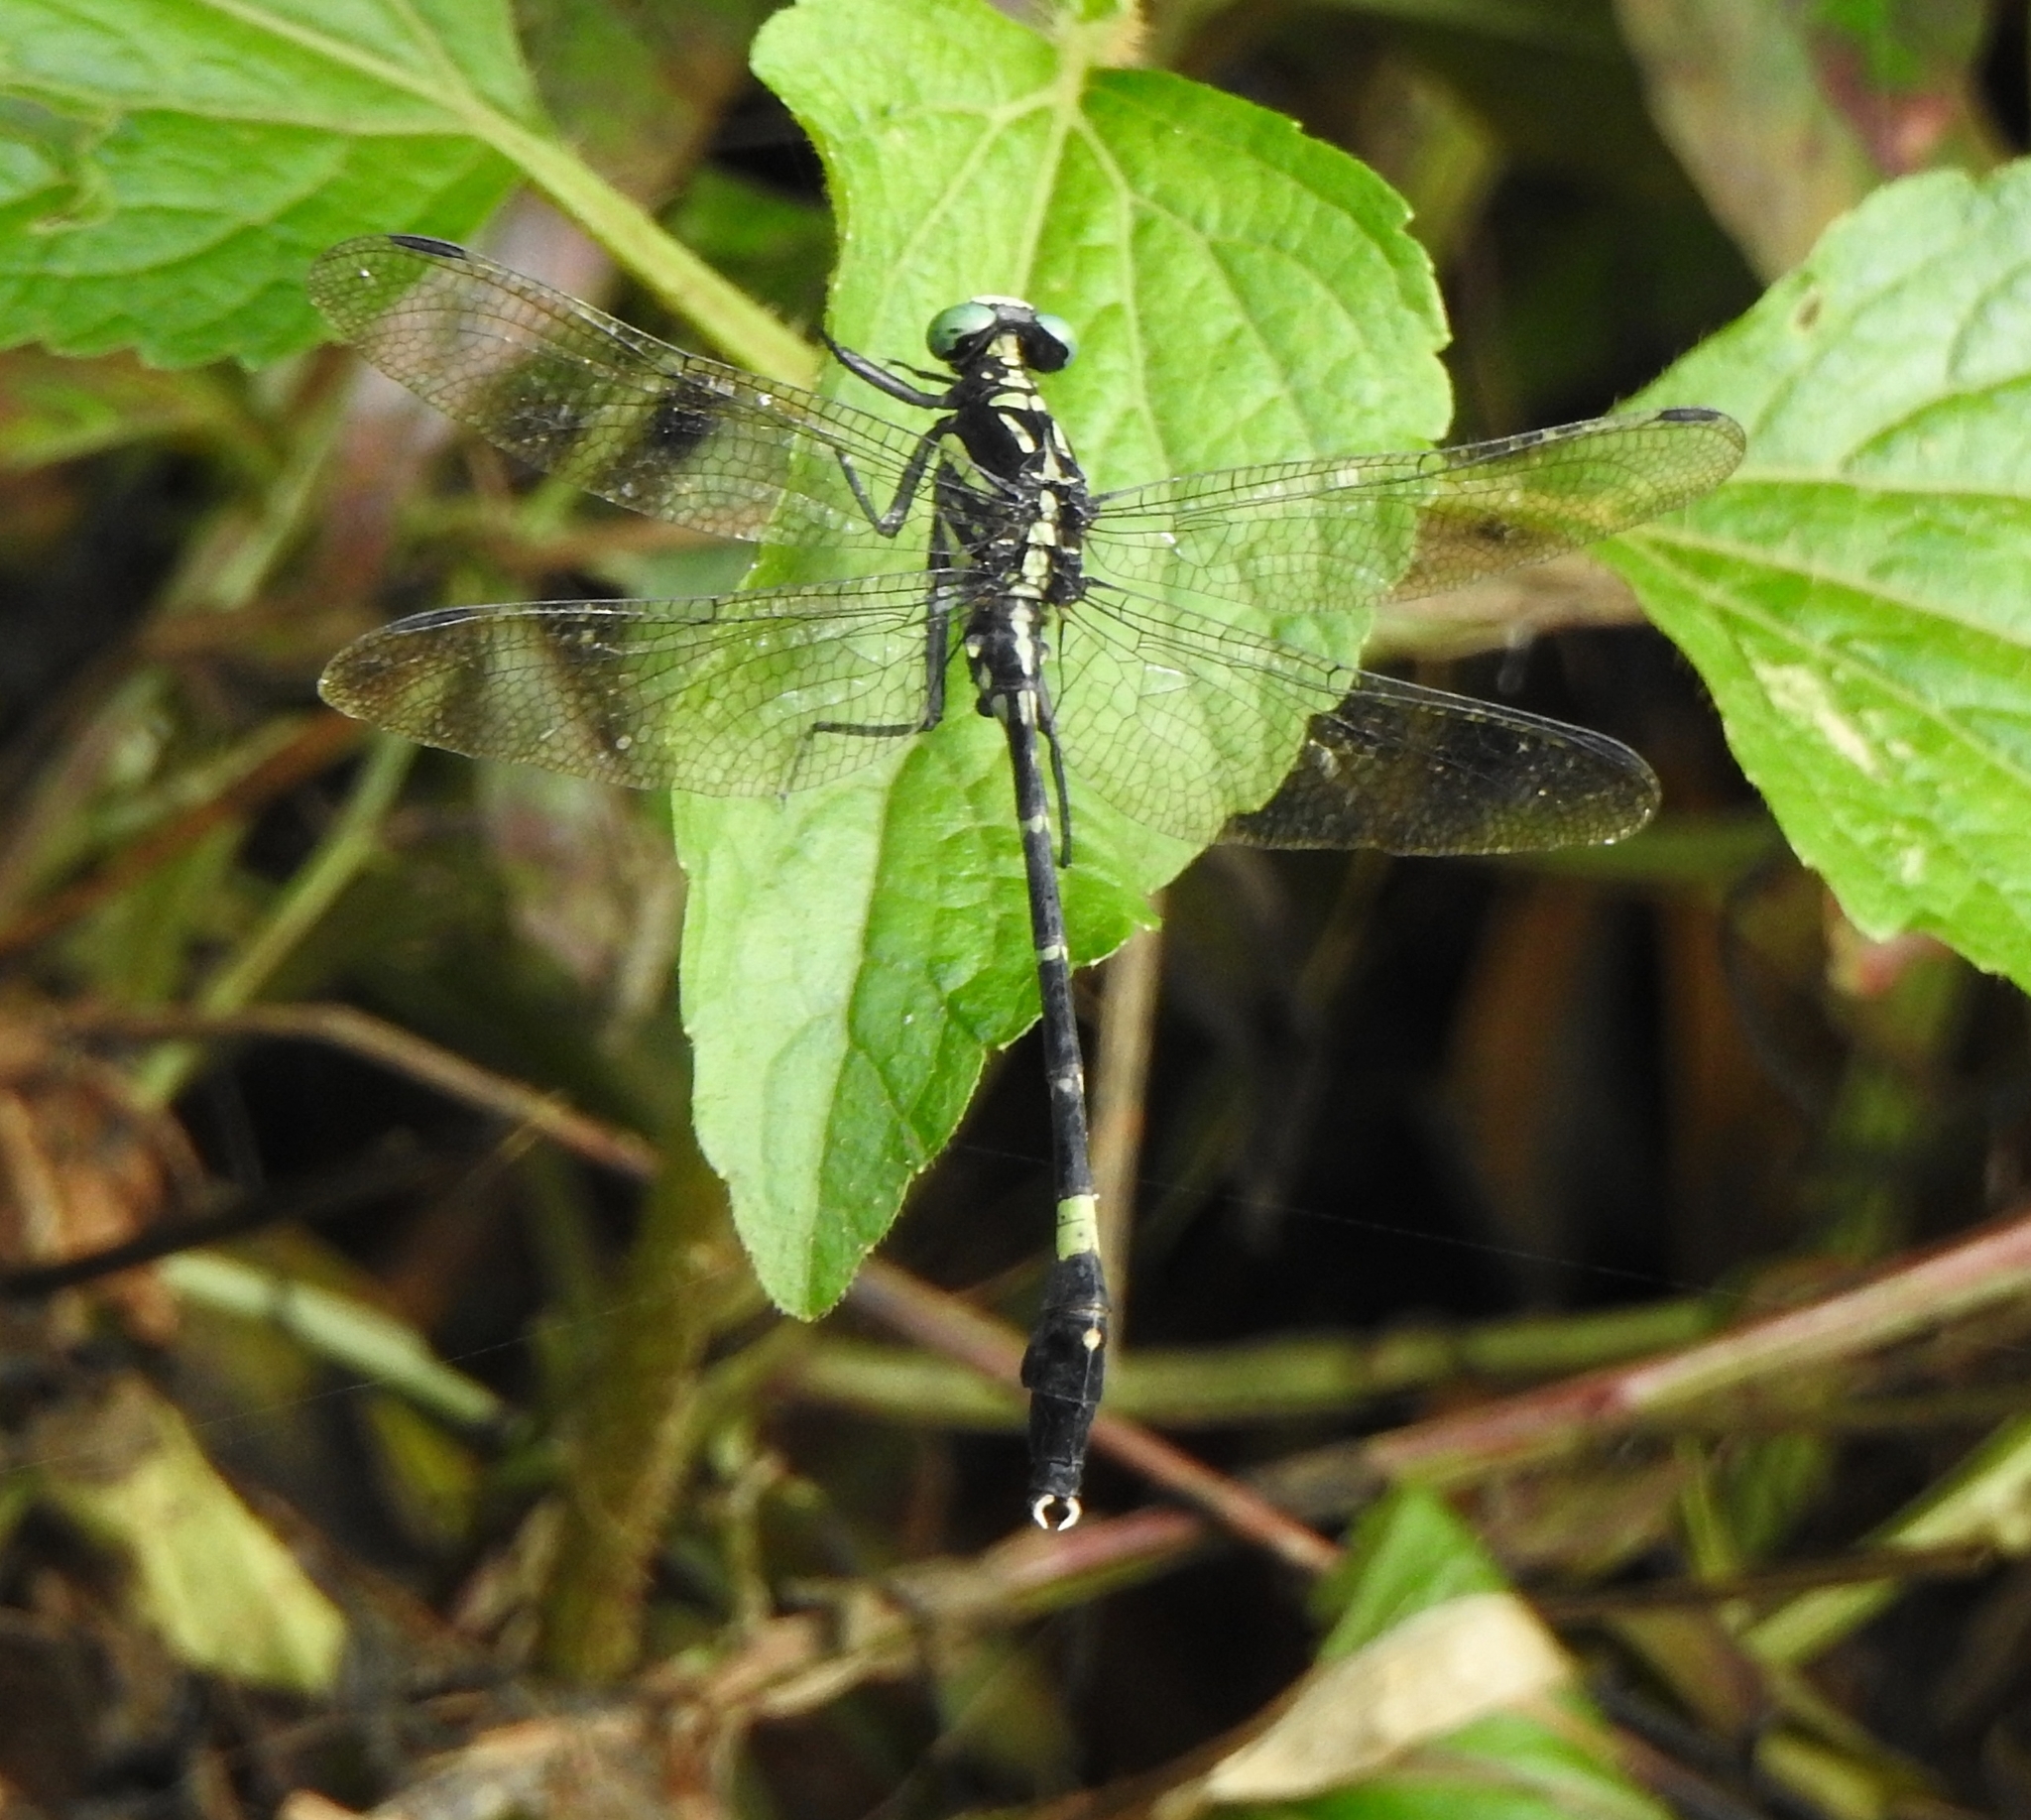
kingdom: Animalia
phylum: Arthropoda
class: Insecta
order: Odonata
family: Gomphidae
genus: Merogomphus
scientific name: Merogomphus tamaracherriensis
